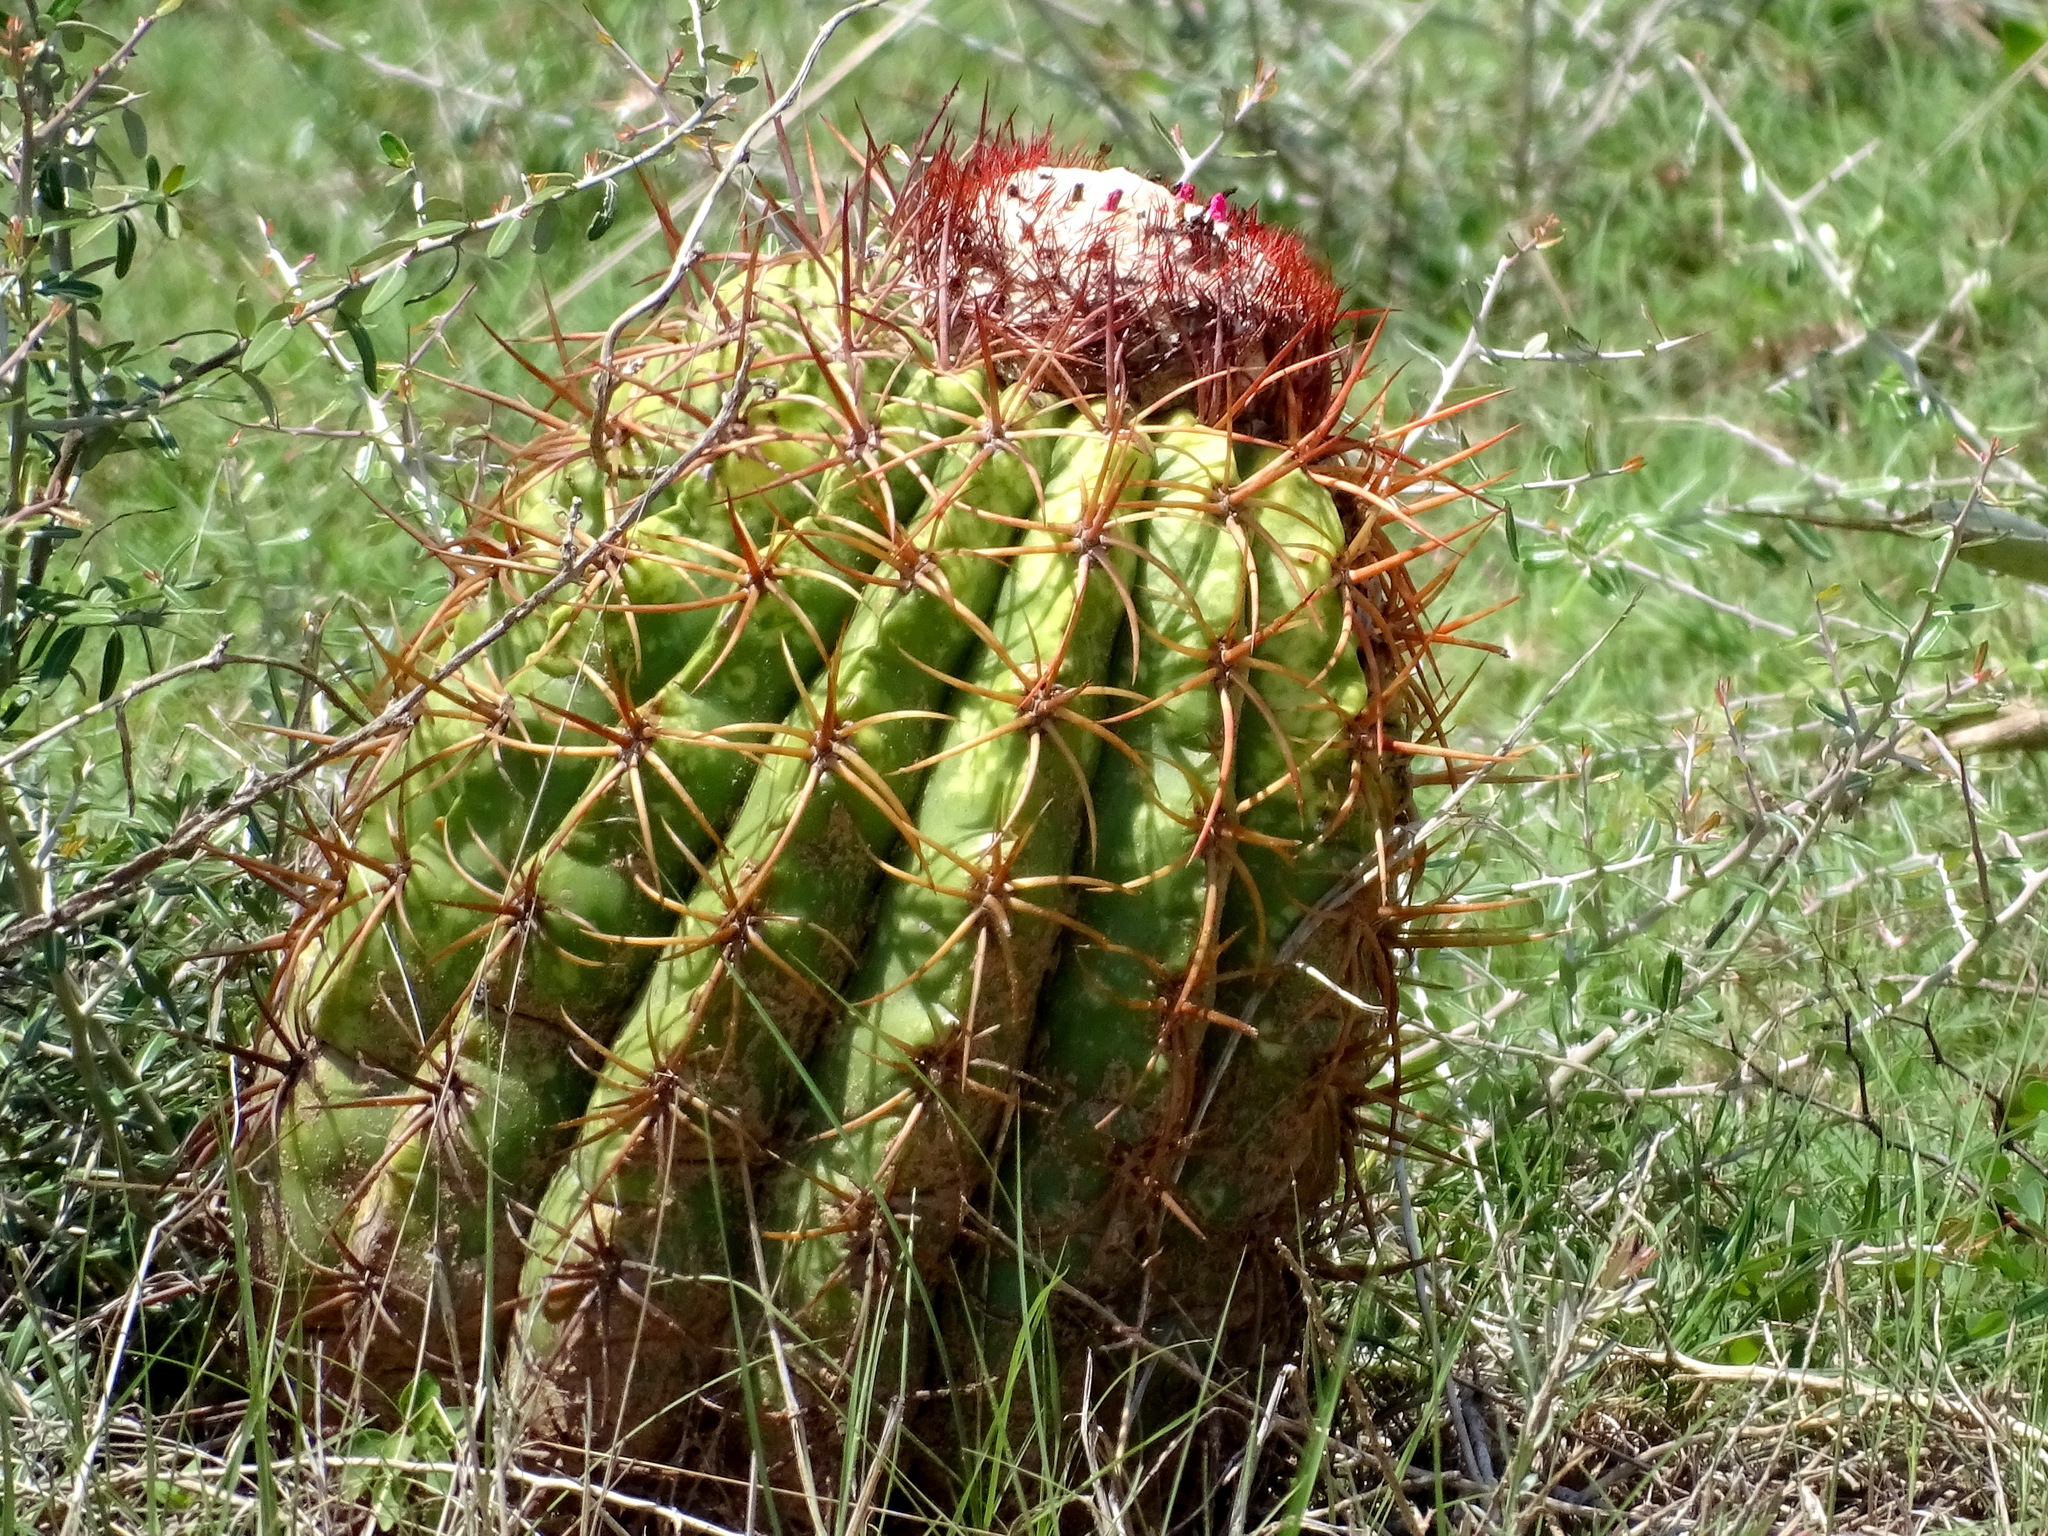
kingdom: Plantae
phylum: Tracheophyta
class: Magnoliopsida
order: Caryophyllales
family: Cactaceae
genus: Melocactus
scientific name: Melocactus curvispinus
